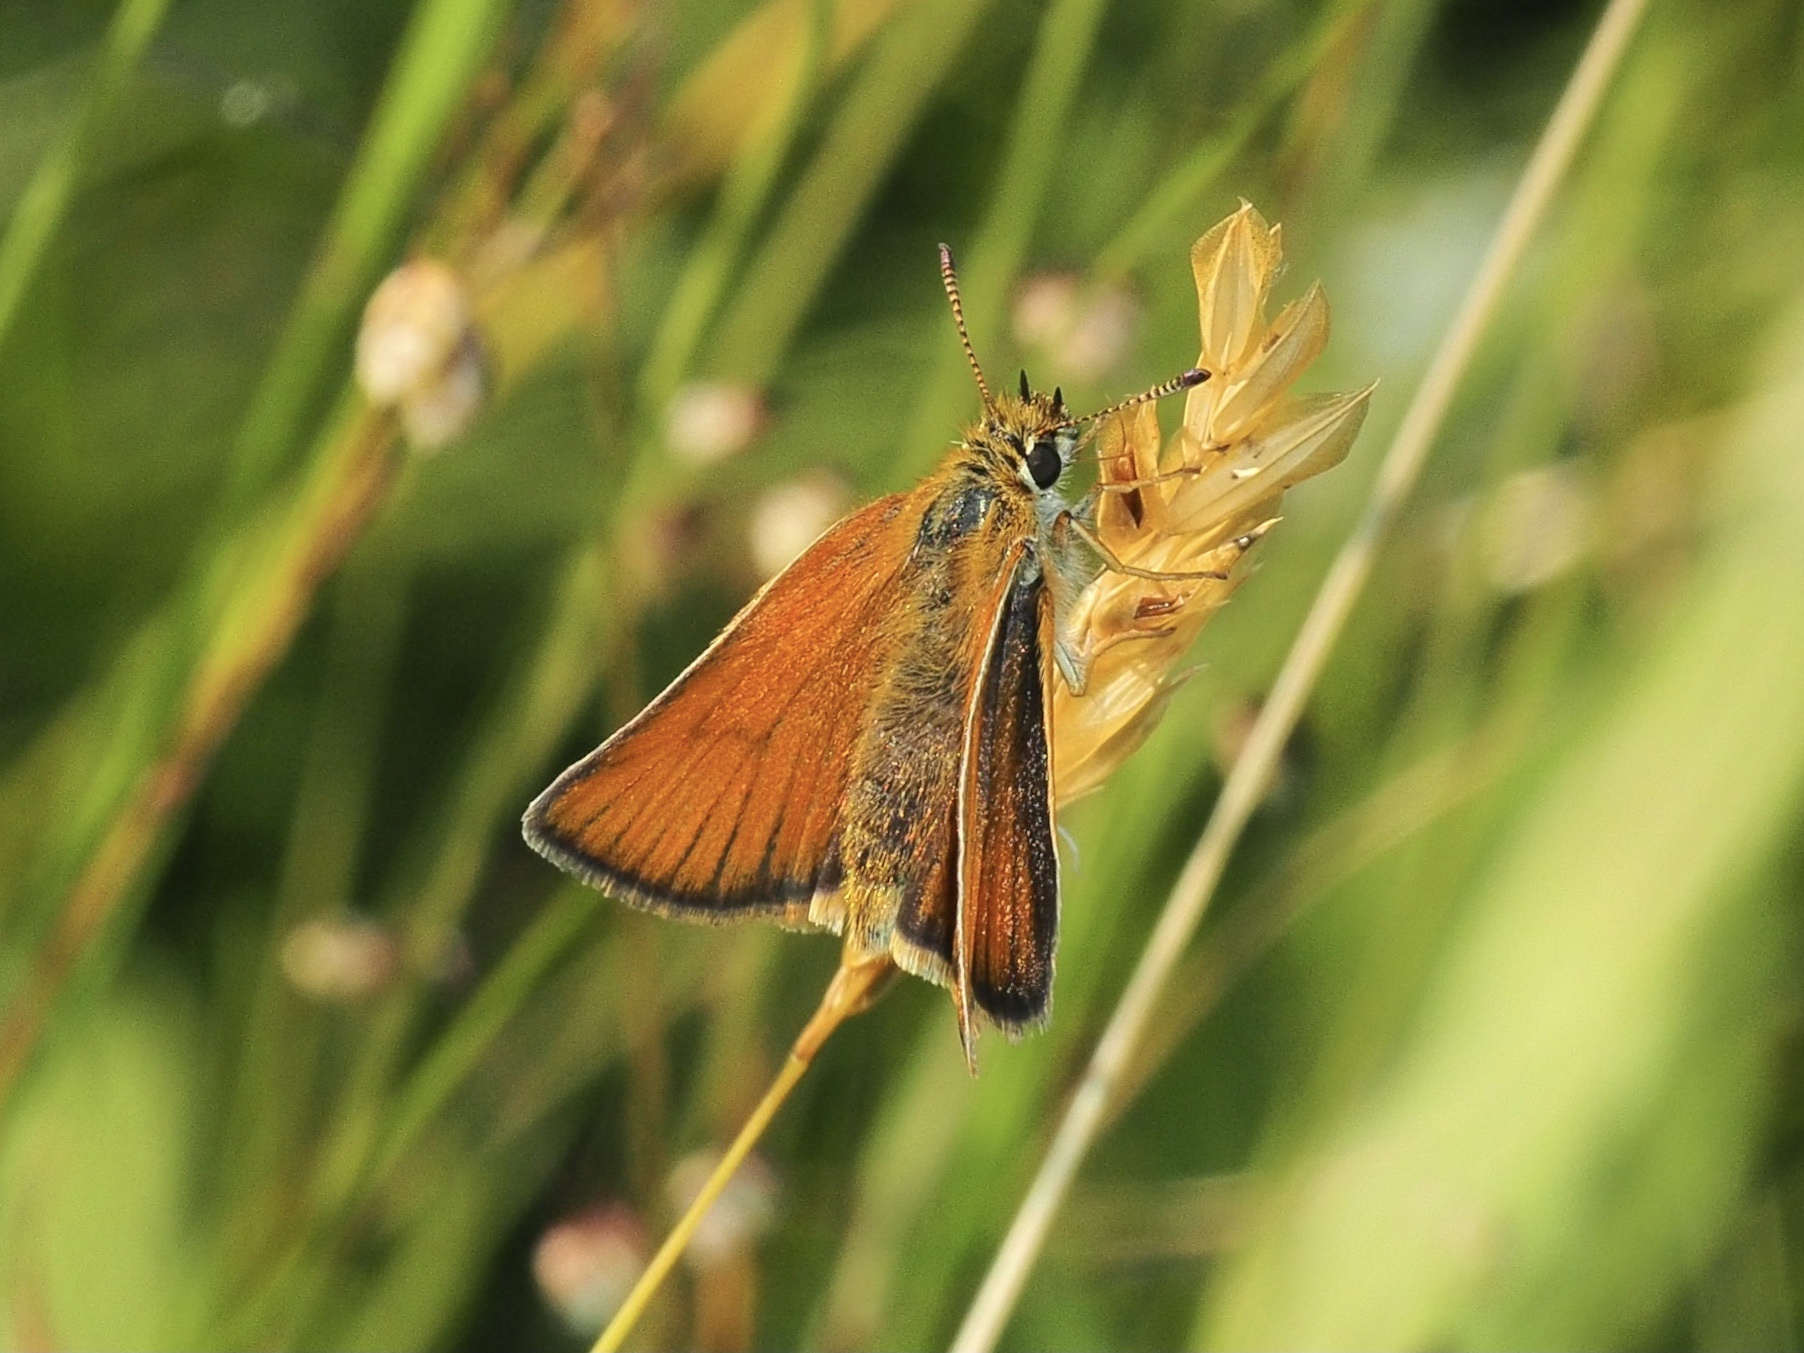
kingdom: Animalia
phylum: Arthropoda
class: Insecta
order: Lepidoptera
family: Hesperiidae
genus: Thymelicus
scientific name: Thymelicus lineola
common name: Essex skipper
